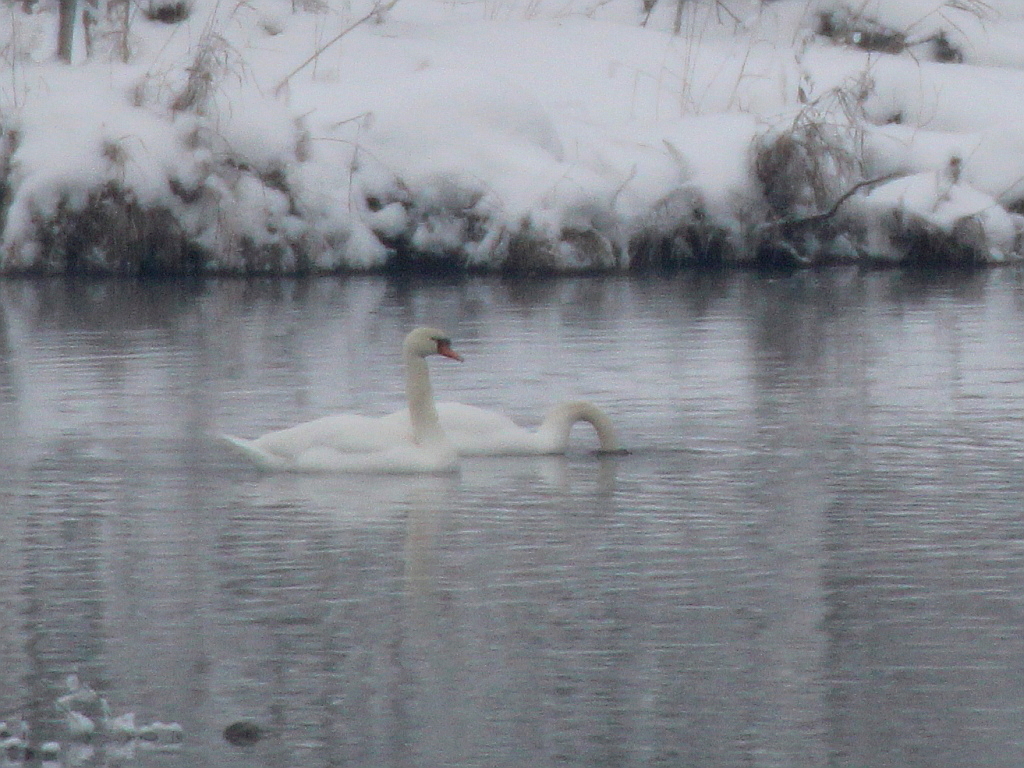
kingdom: Animalia
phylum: Chordata
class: Aves
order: Anseriformes
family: Anatidae
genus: Cygnus
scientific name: Cygnus olor
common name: Mute swan
